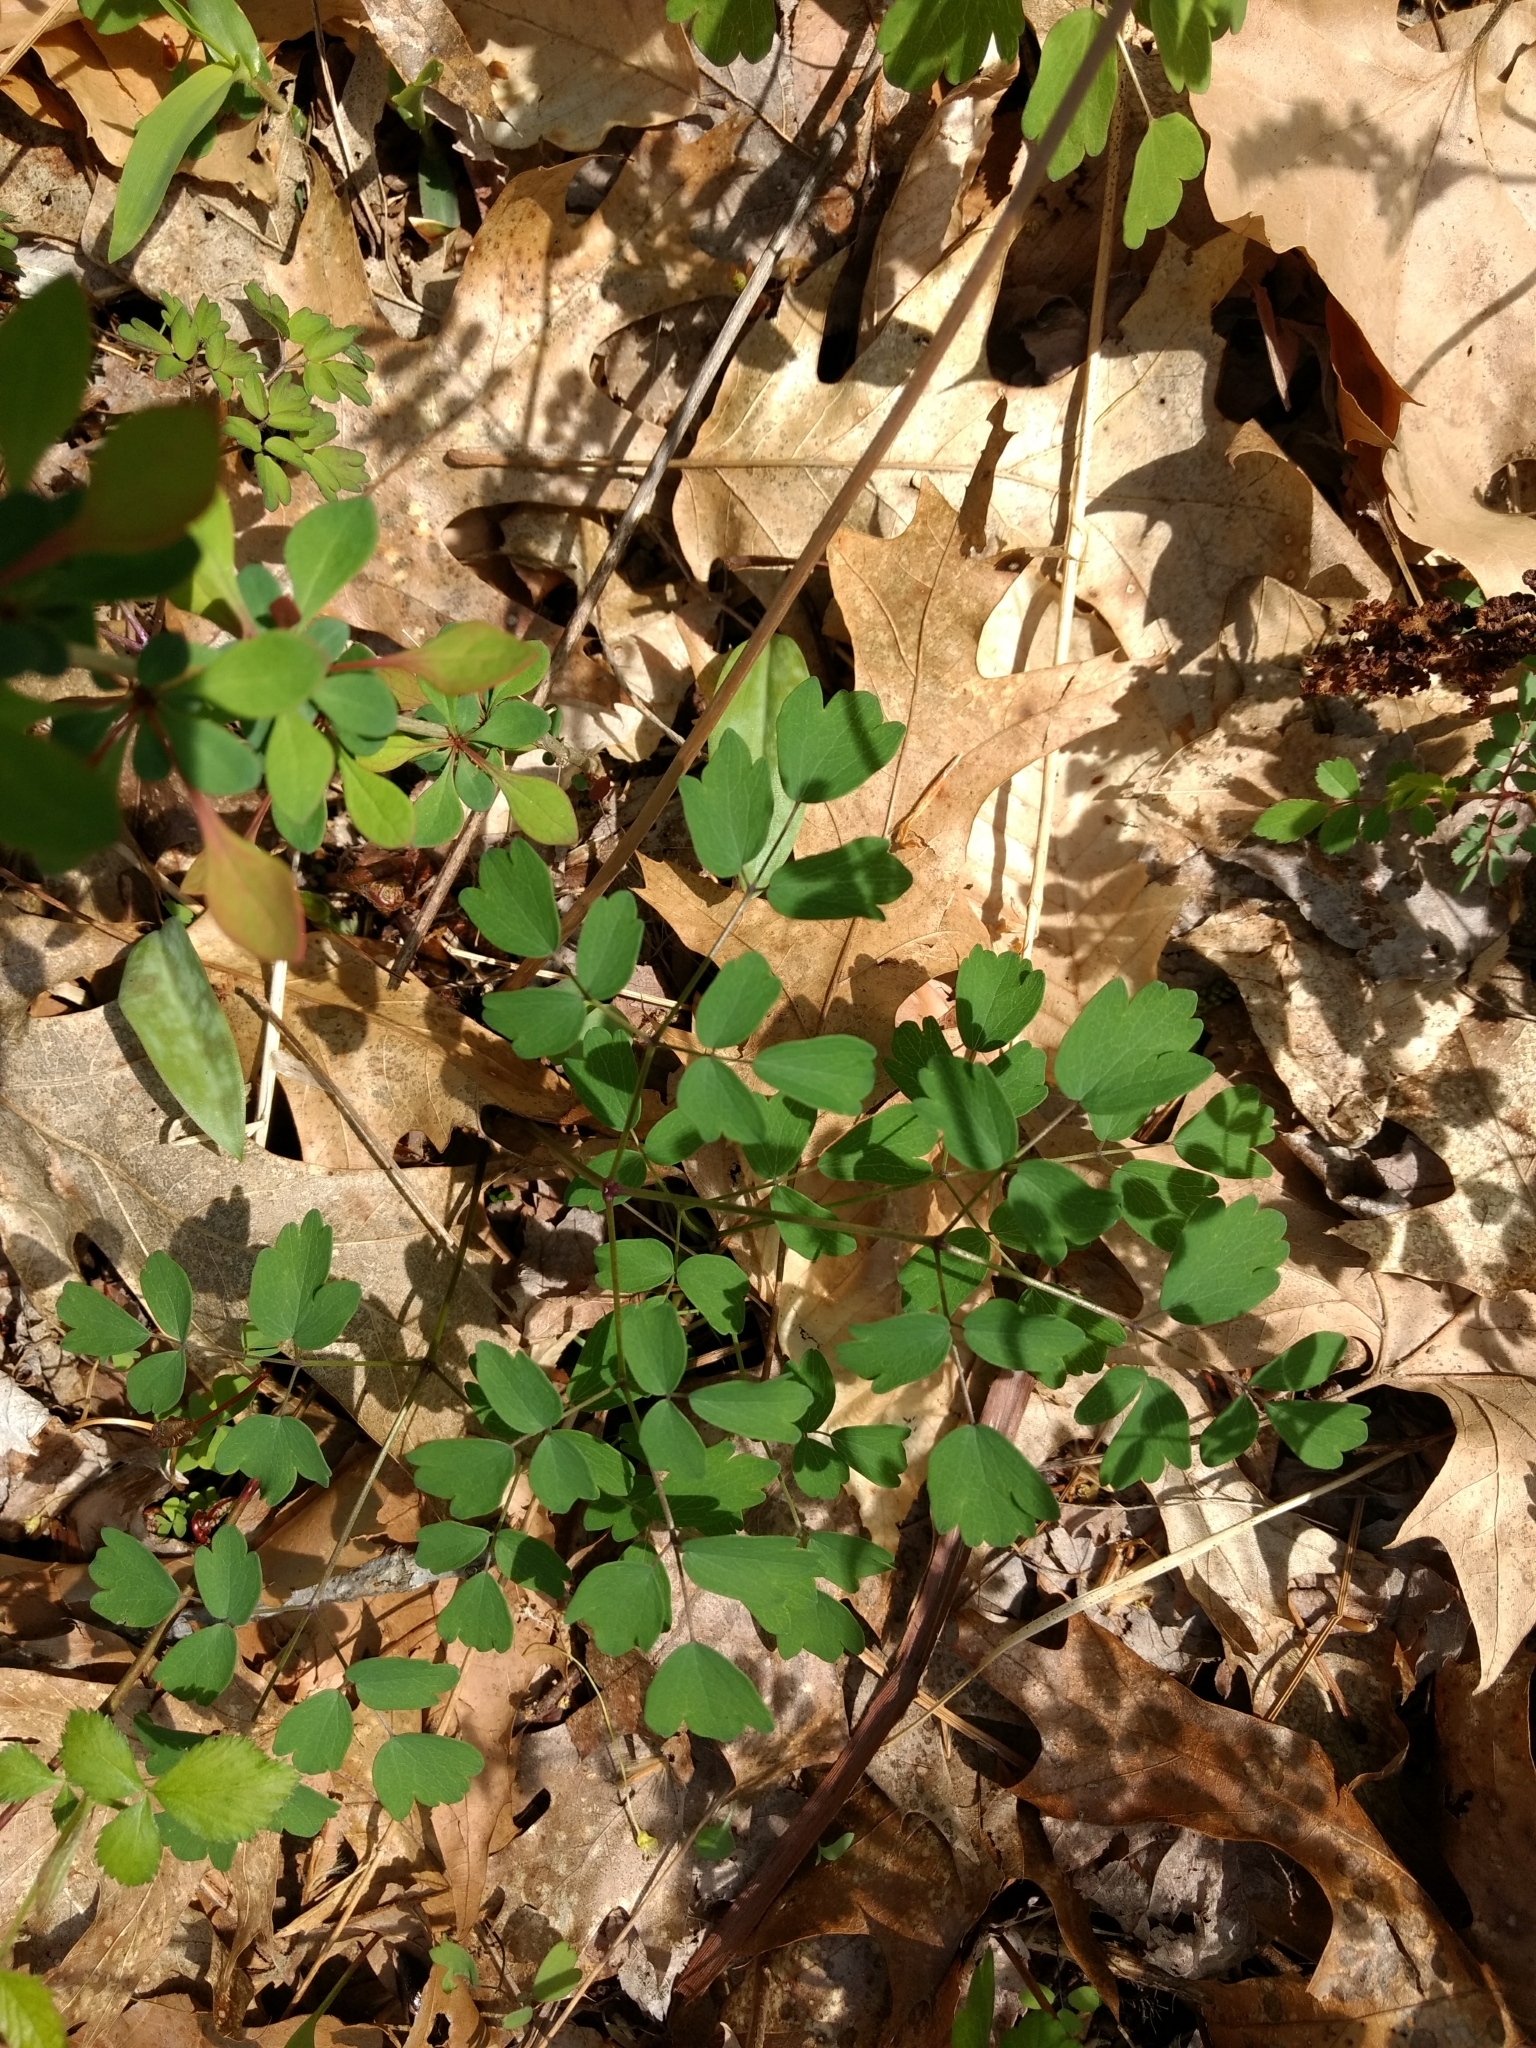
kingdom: Plantae
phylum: Tracheophyta
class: Magnoliopsida
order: Ranunculales
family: Ranunculaceae
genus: Thalictrum
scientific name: Thalictrum dioicum
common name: Early meadow-rue
